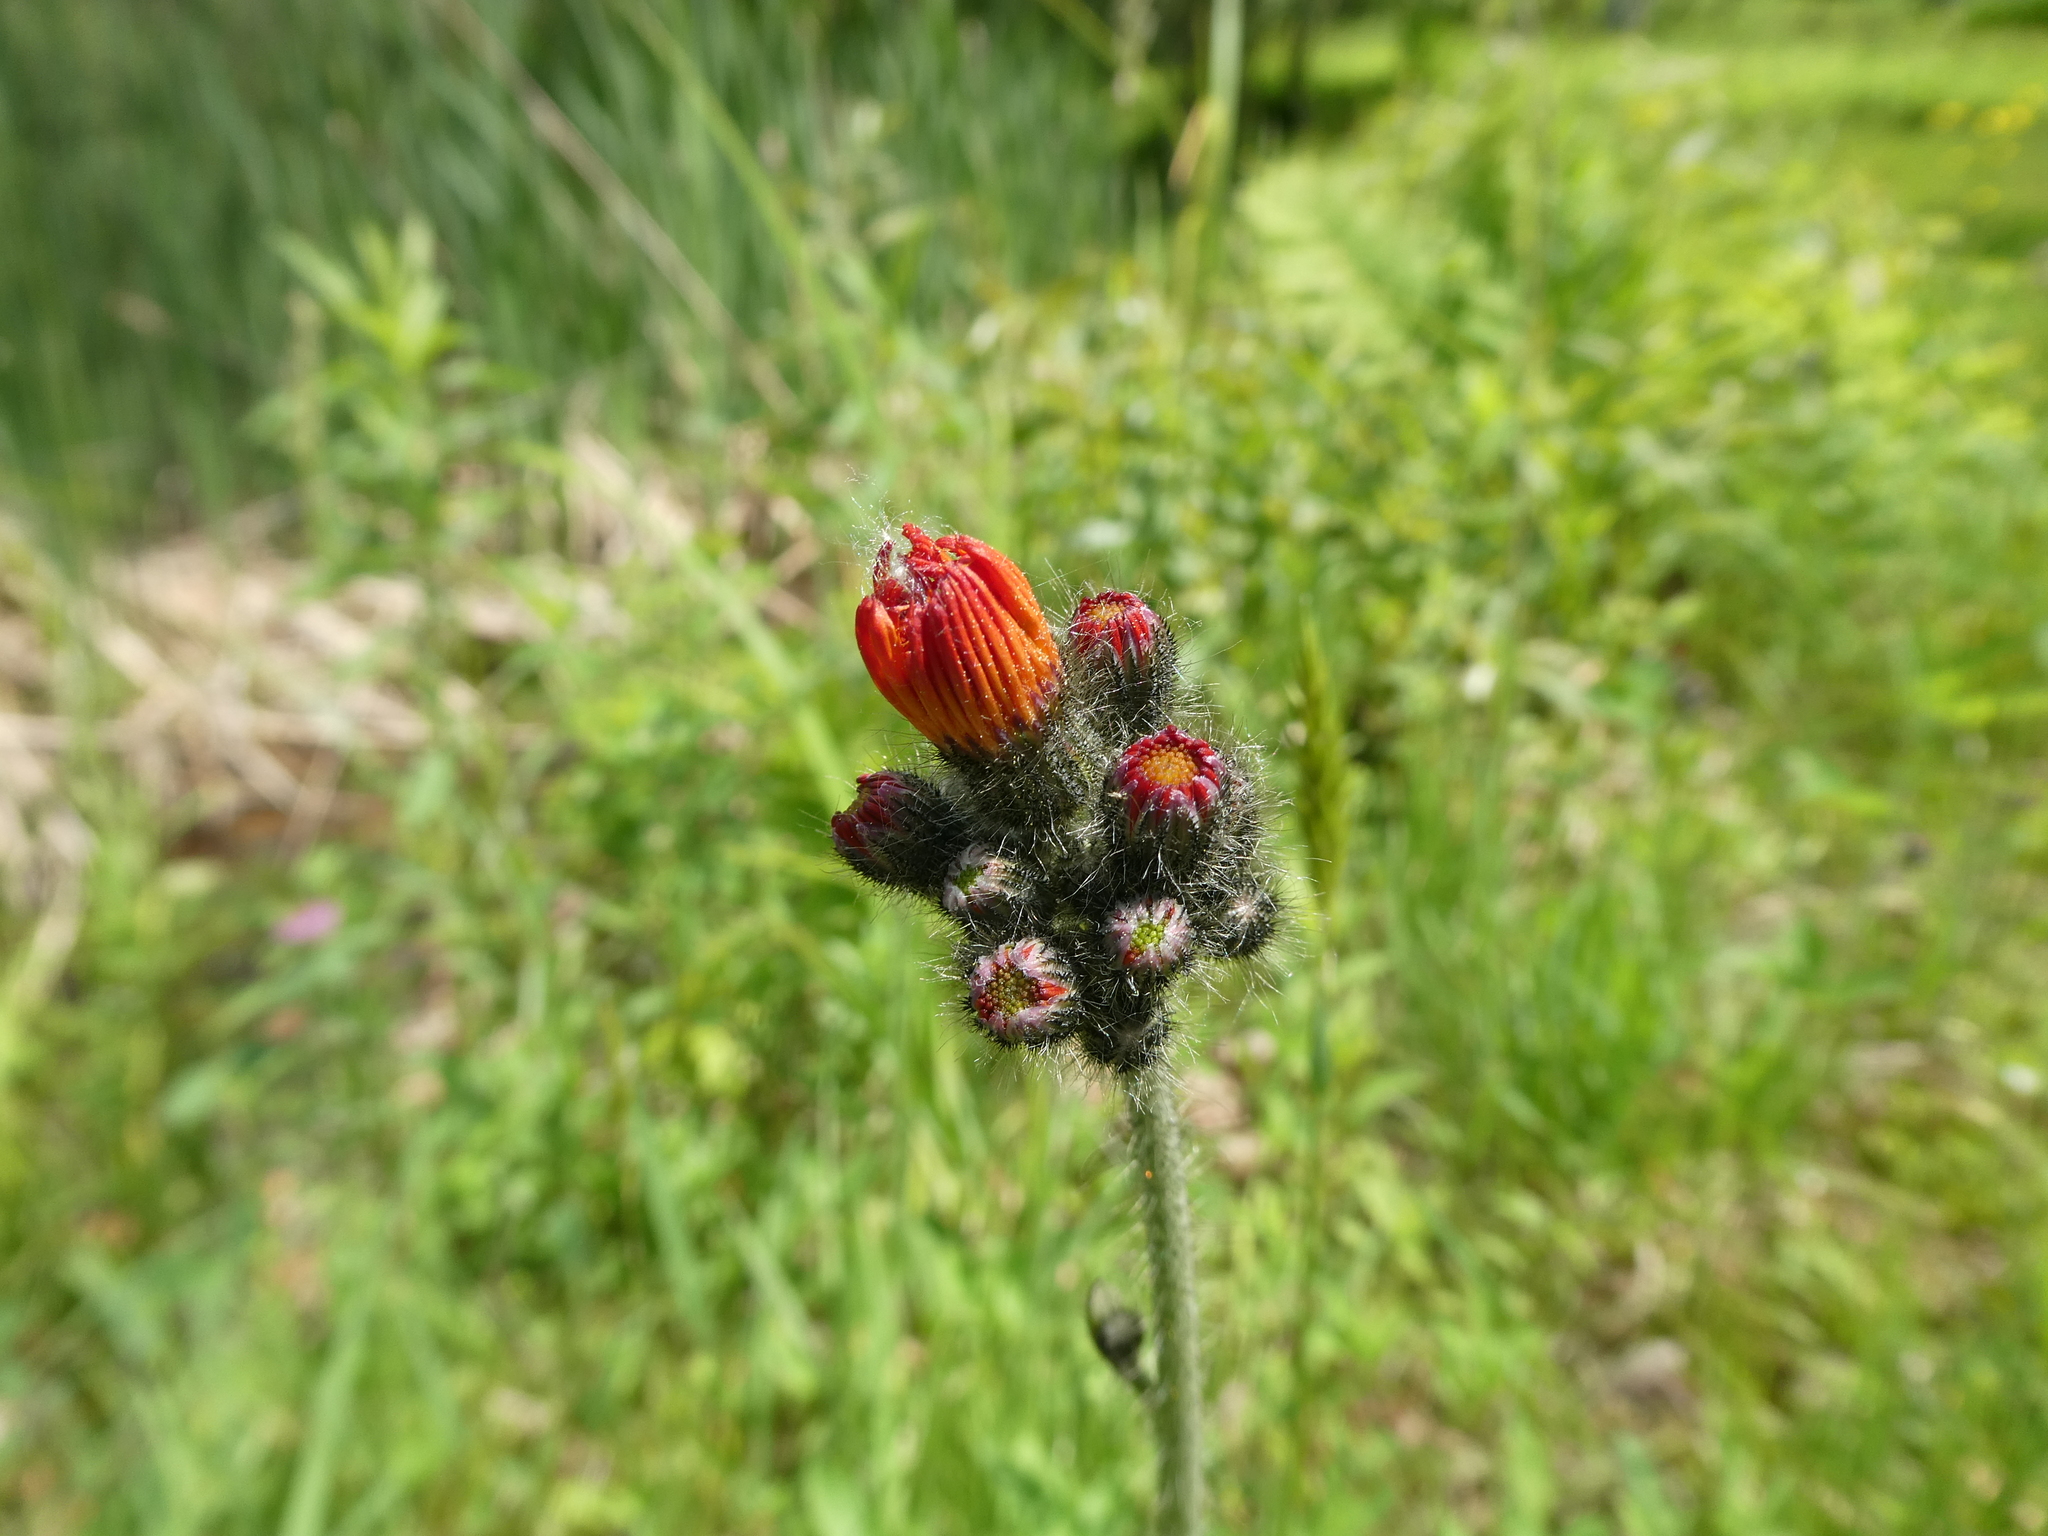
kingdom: Plantae
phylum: Tracheophyta
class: Magnoliopsida
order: Asterales
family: Asteraceae
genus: Pilosella
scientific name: Pilosella aurantiaca
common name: Fox-and-cubs
